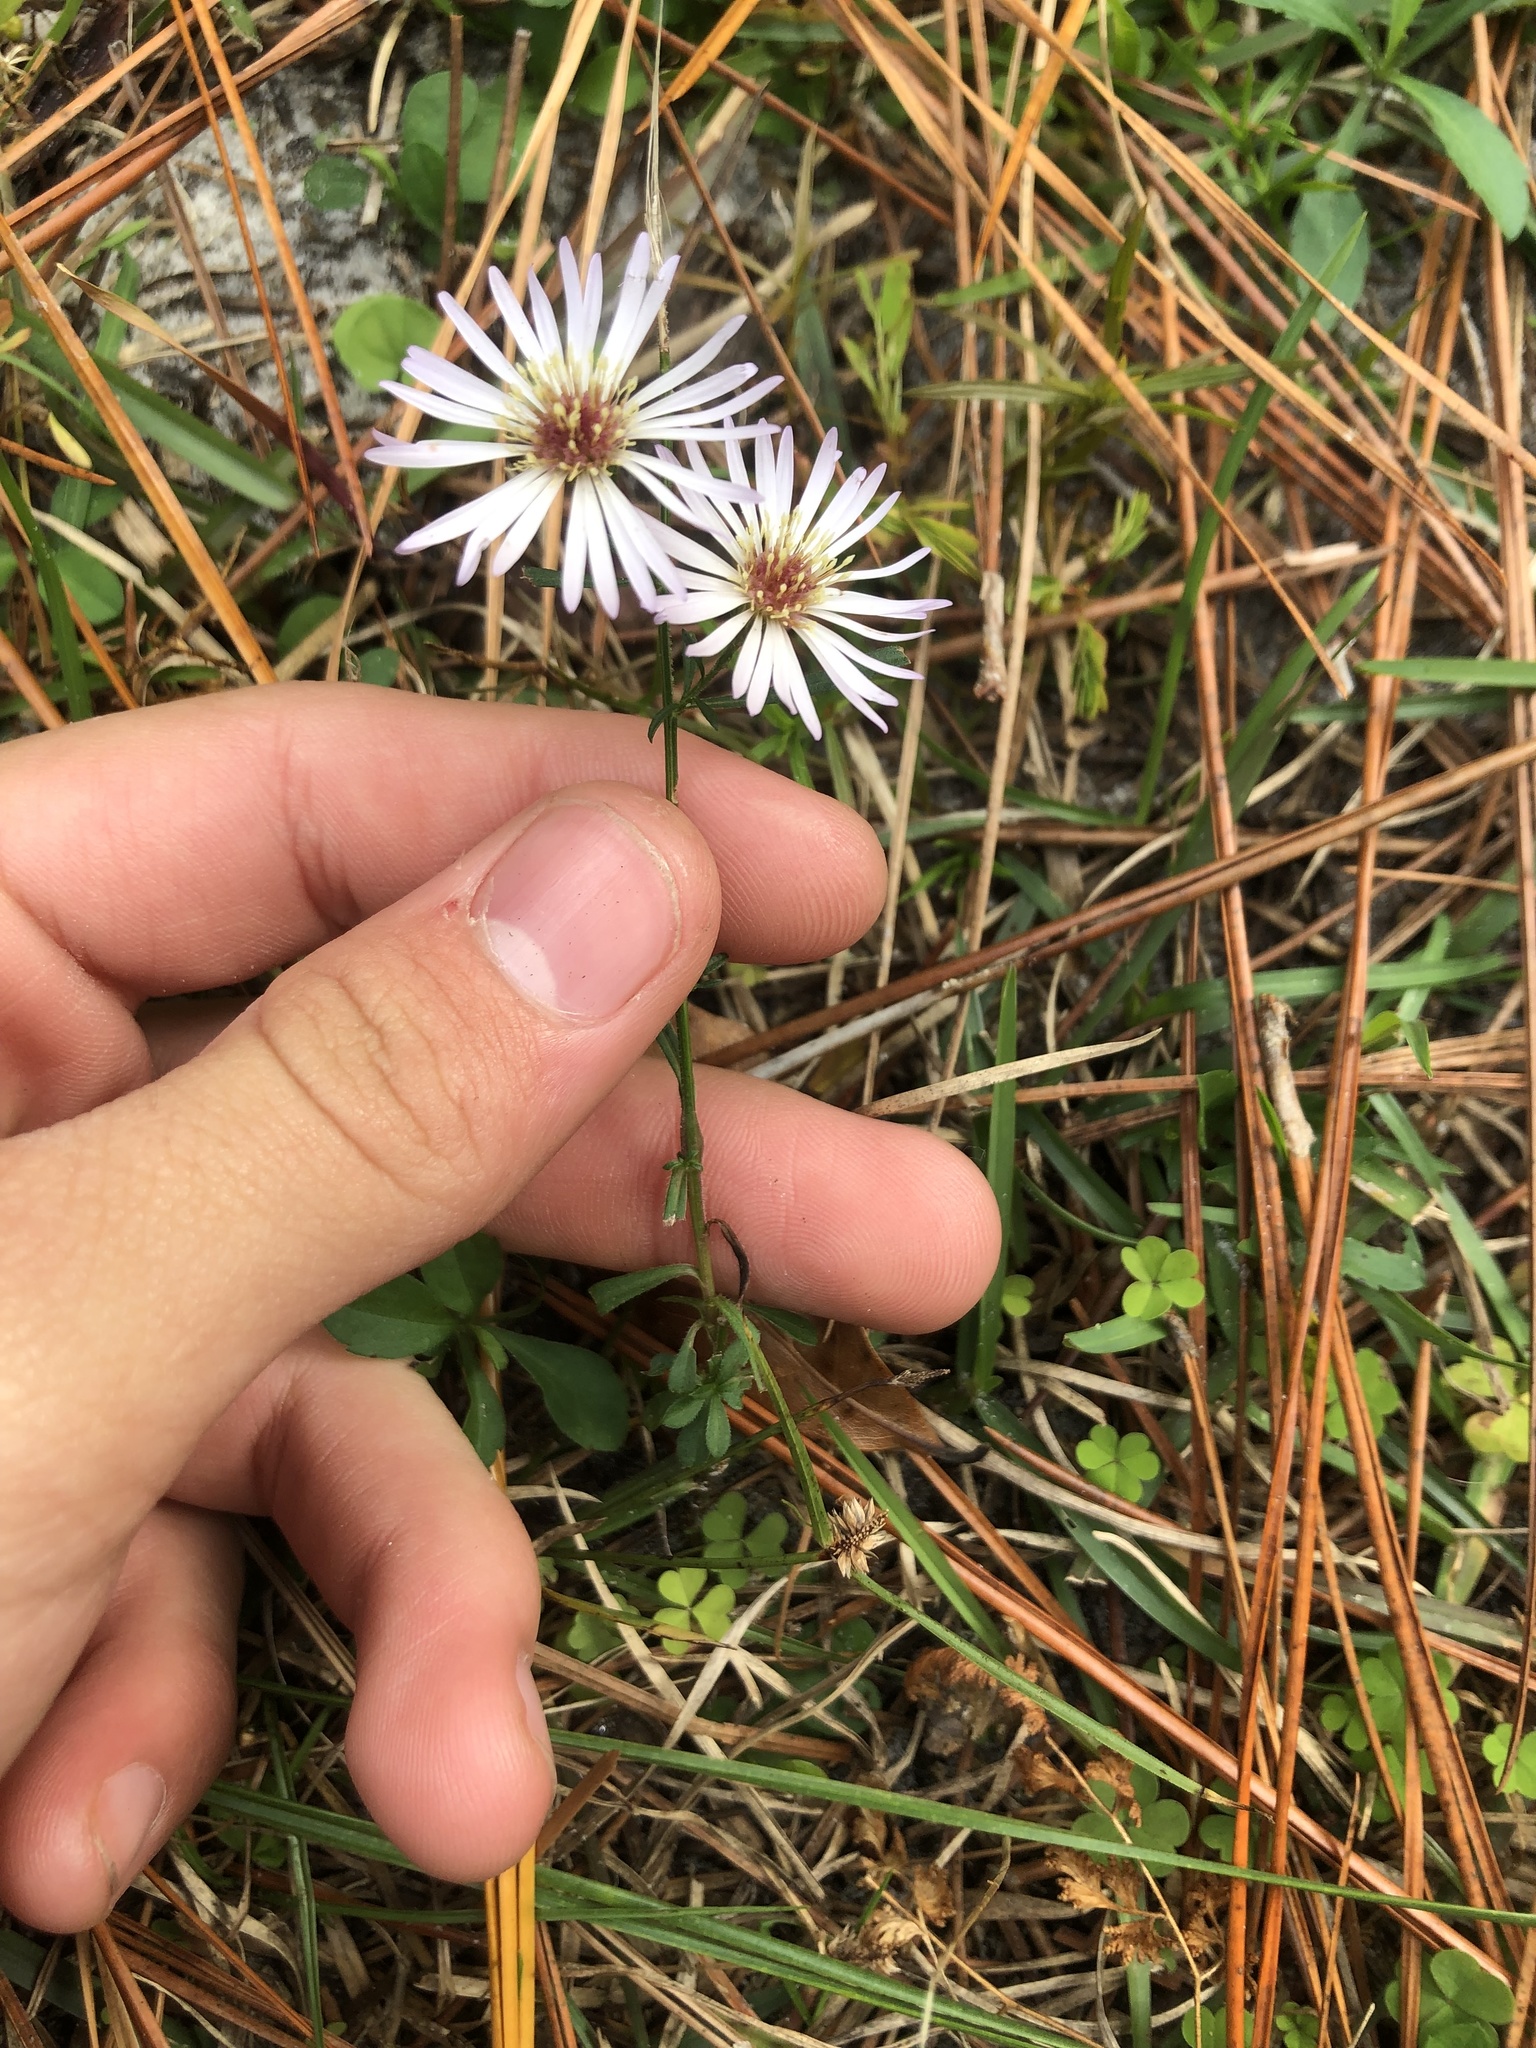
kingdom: Plantae
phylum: Tracheophyta
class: Magnoliopsida
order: Asterales
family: Asteraceae
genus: Symphyotrichum
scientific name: Symphyotrichum simmondsii
